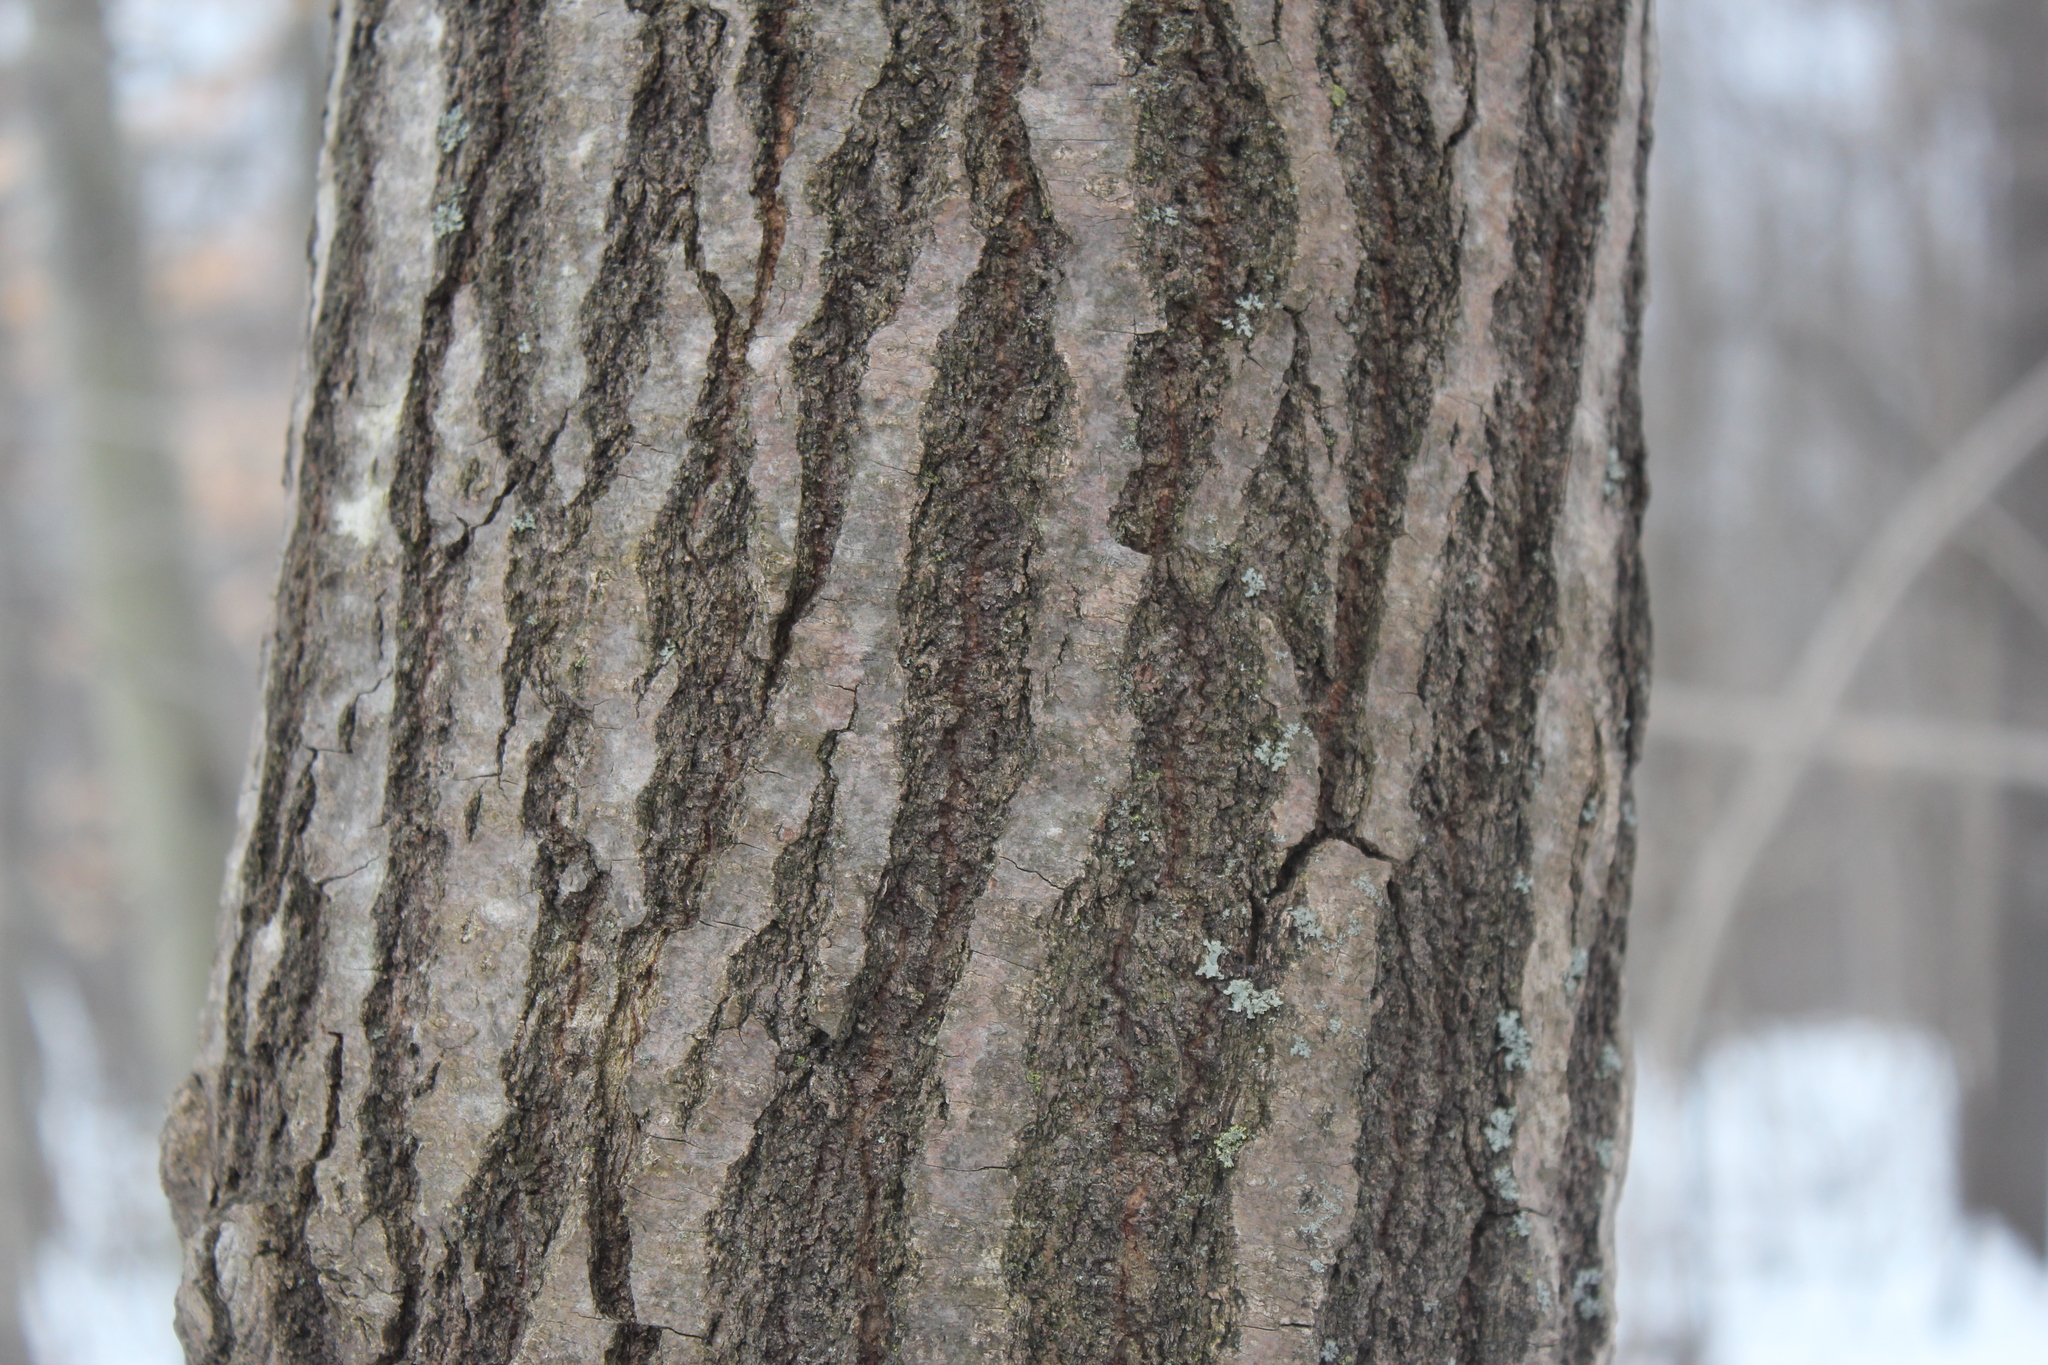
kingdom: Plantae
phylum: Tracheophyta
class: Magnoliopsida
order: Fagales
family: Fagaceae
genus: Quercus
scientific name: Quercus rubra
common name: Red oak
